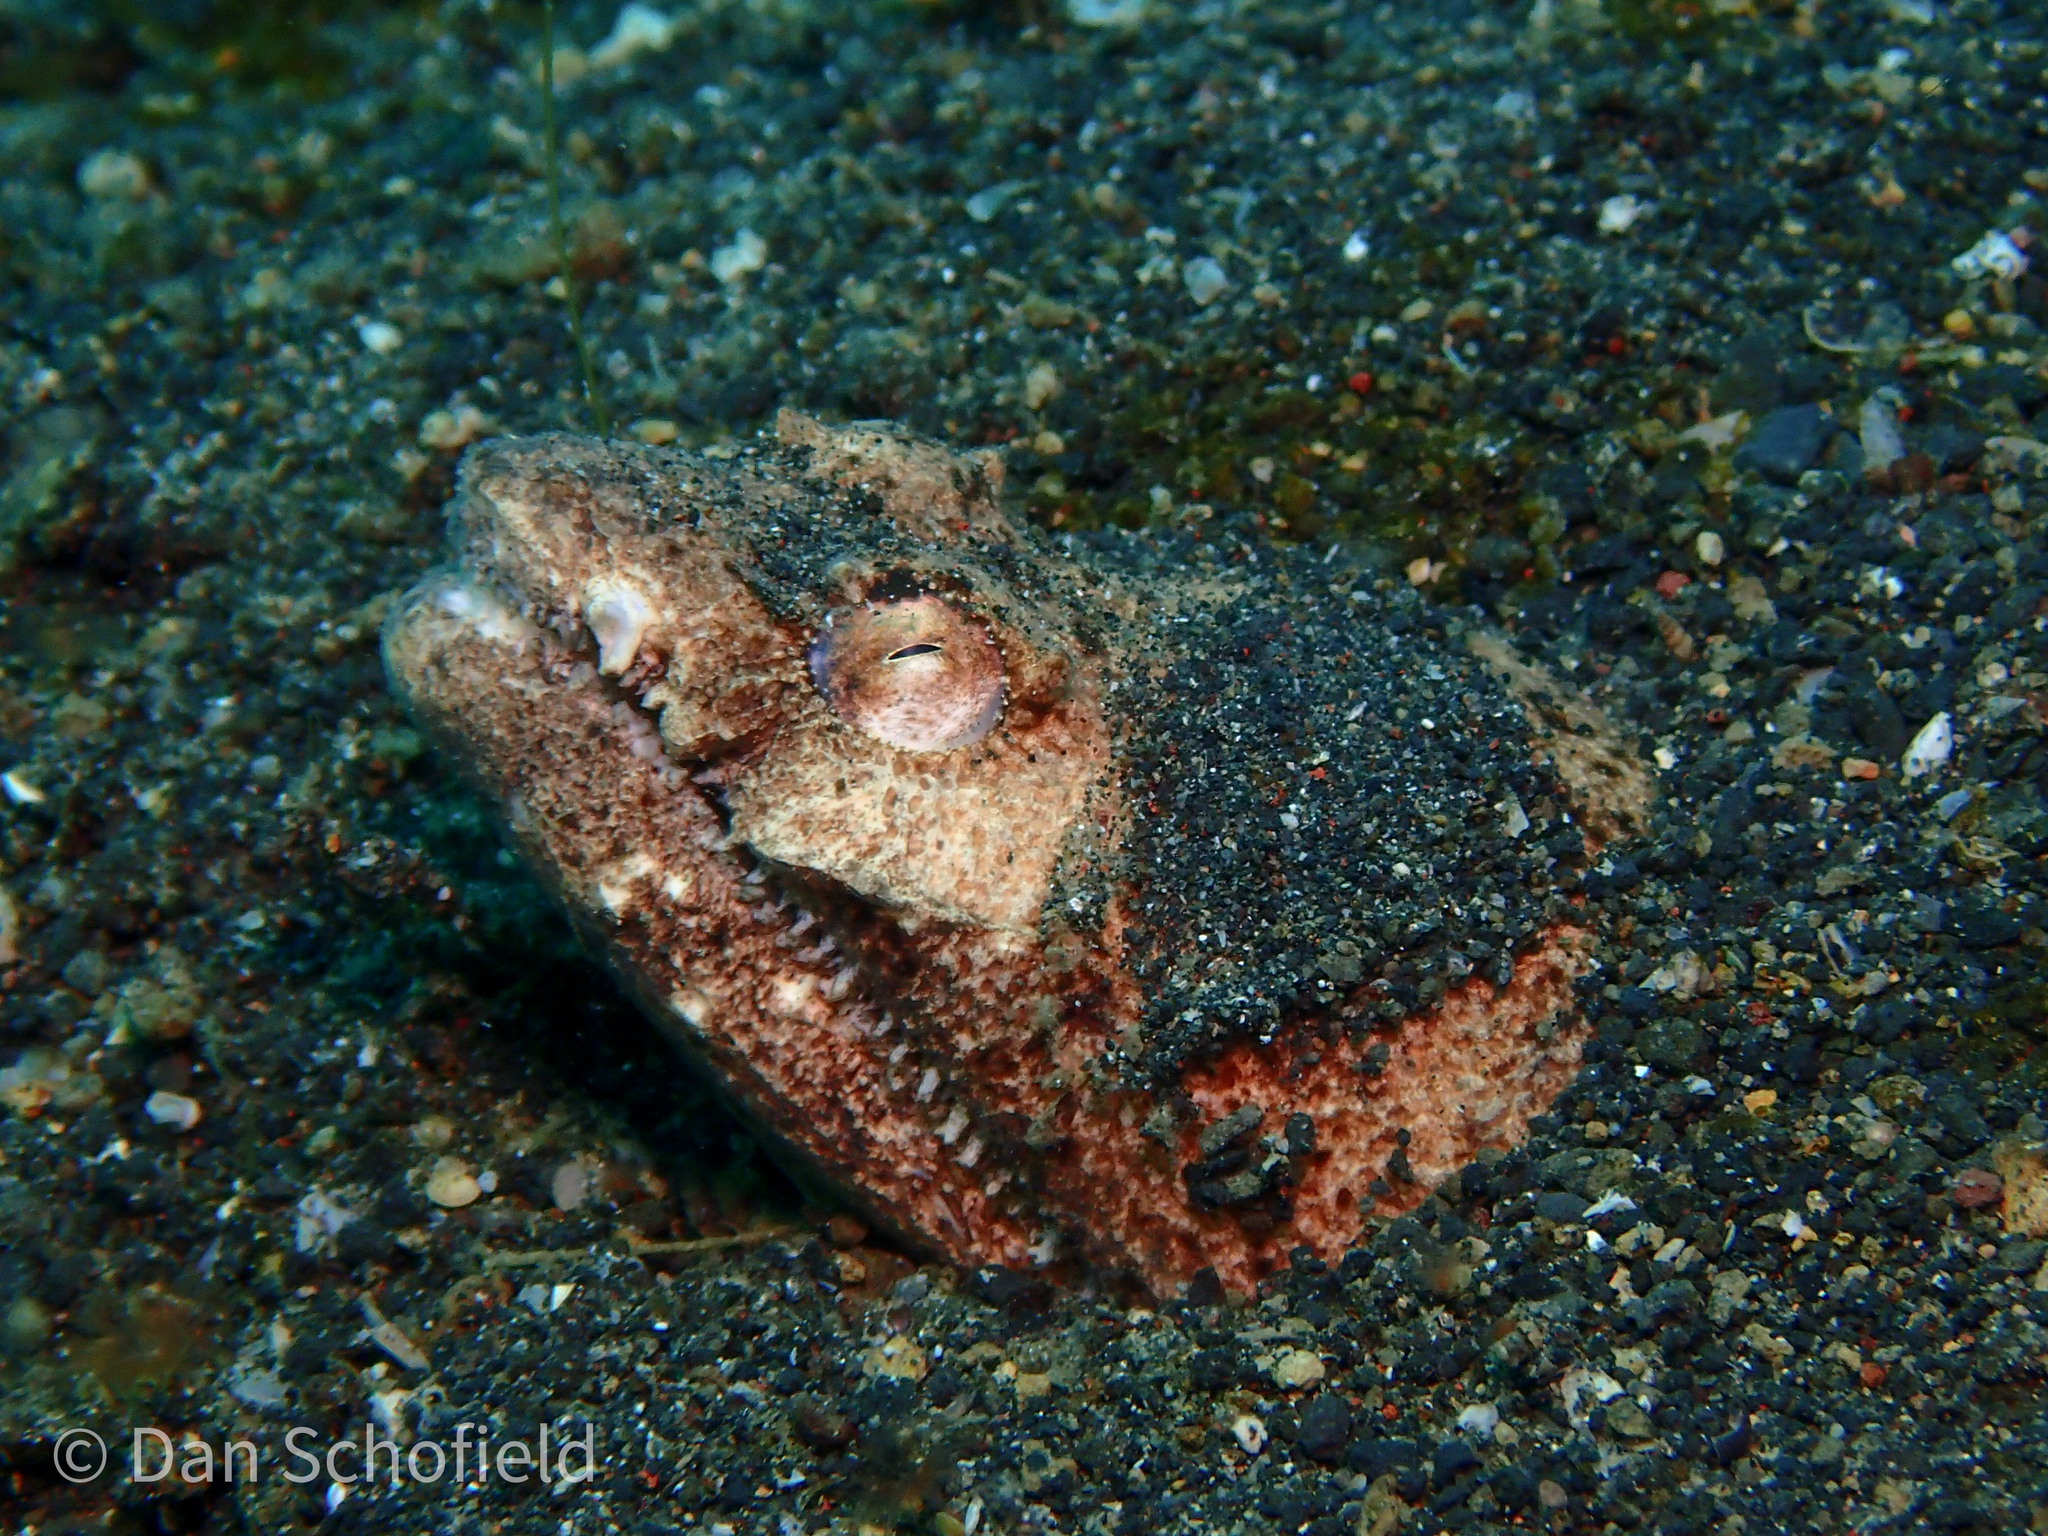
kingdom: Animalia
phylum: Chordata
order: Anguilliformes
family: Ophichthidae
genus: Brachysomophis
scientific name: Brachysomophis henshawi
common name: Crocodile snake eel
